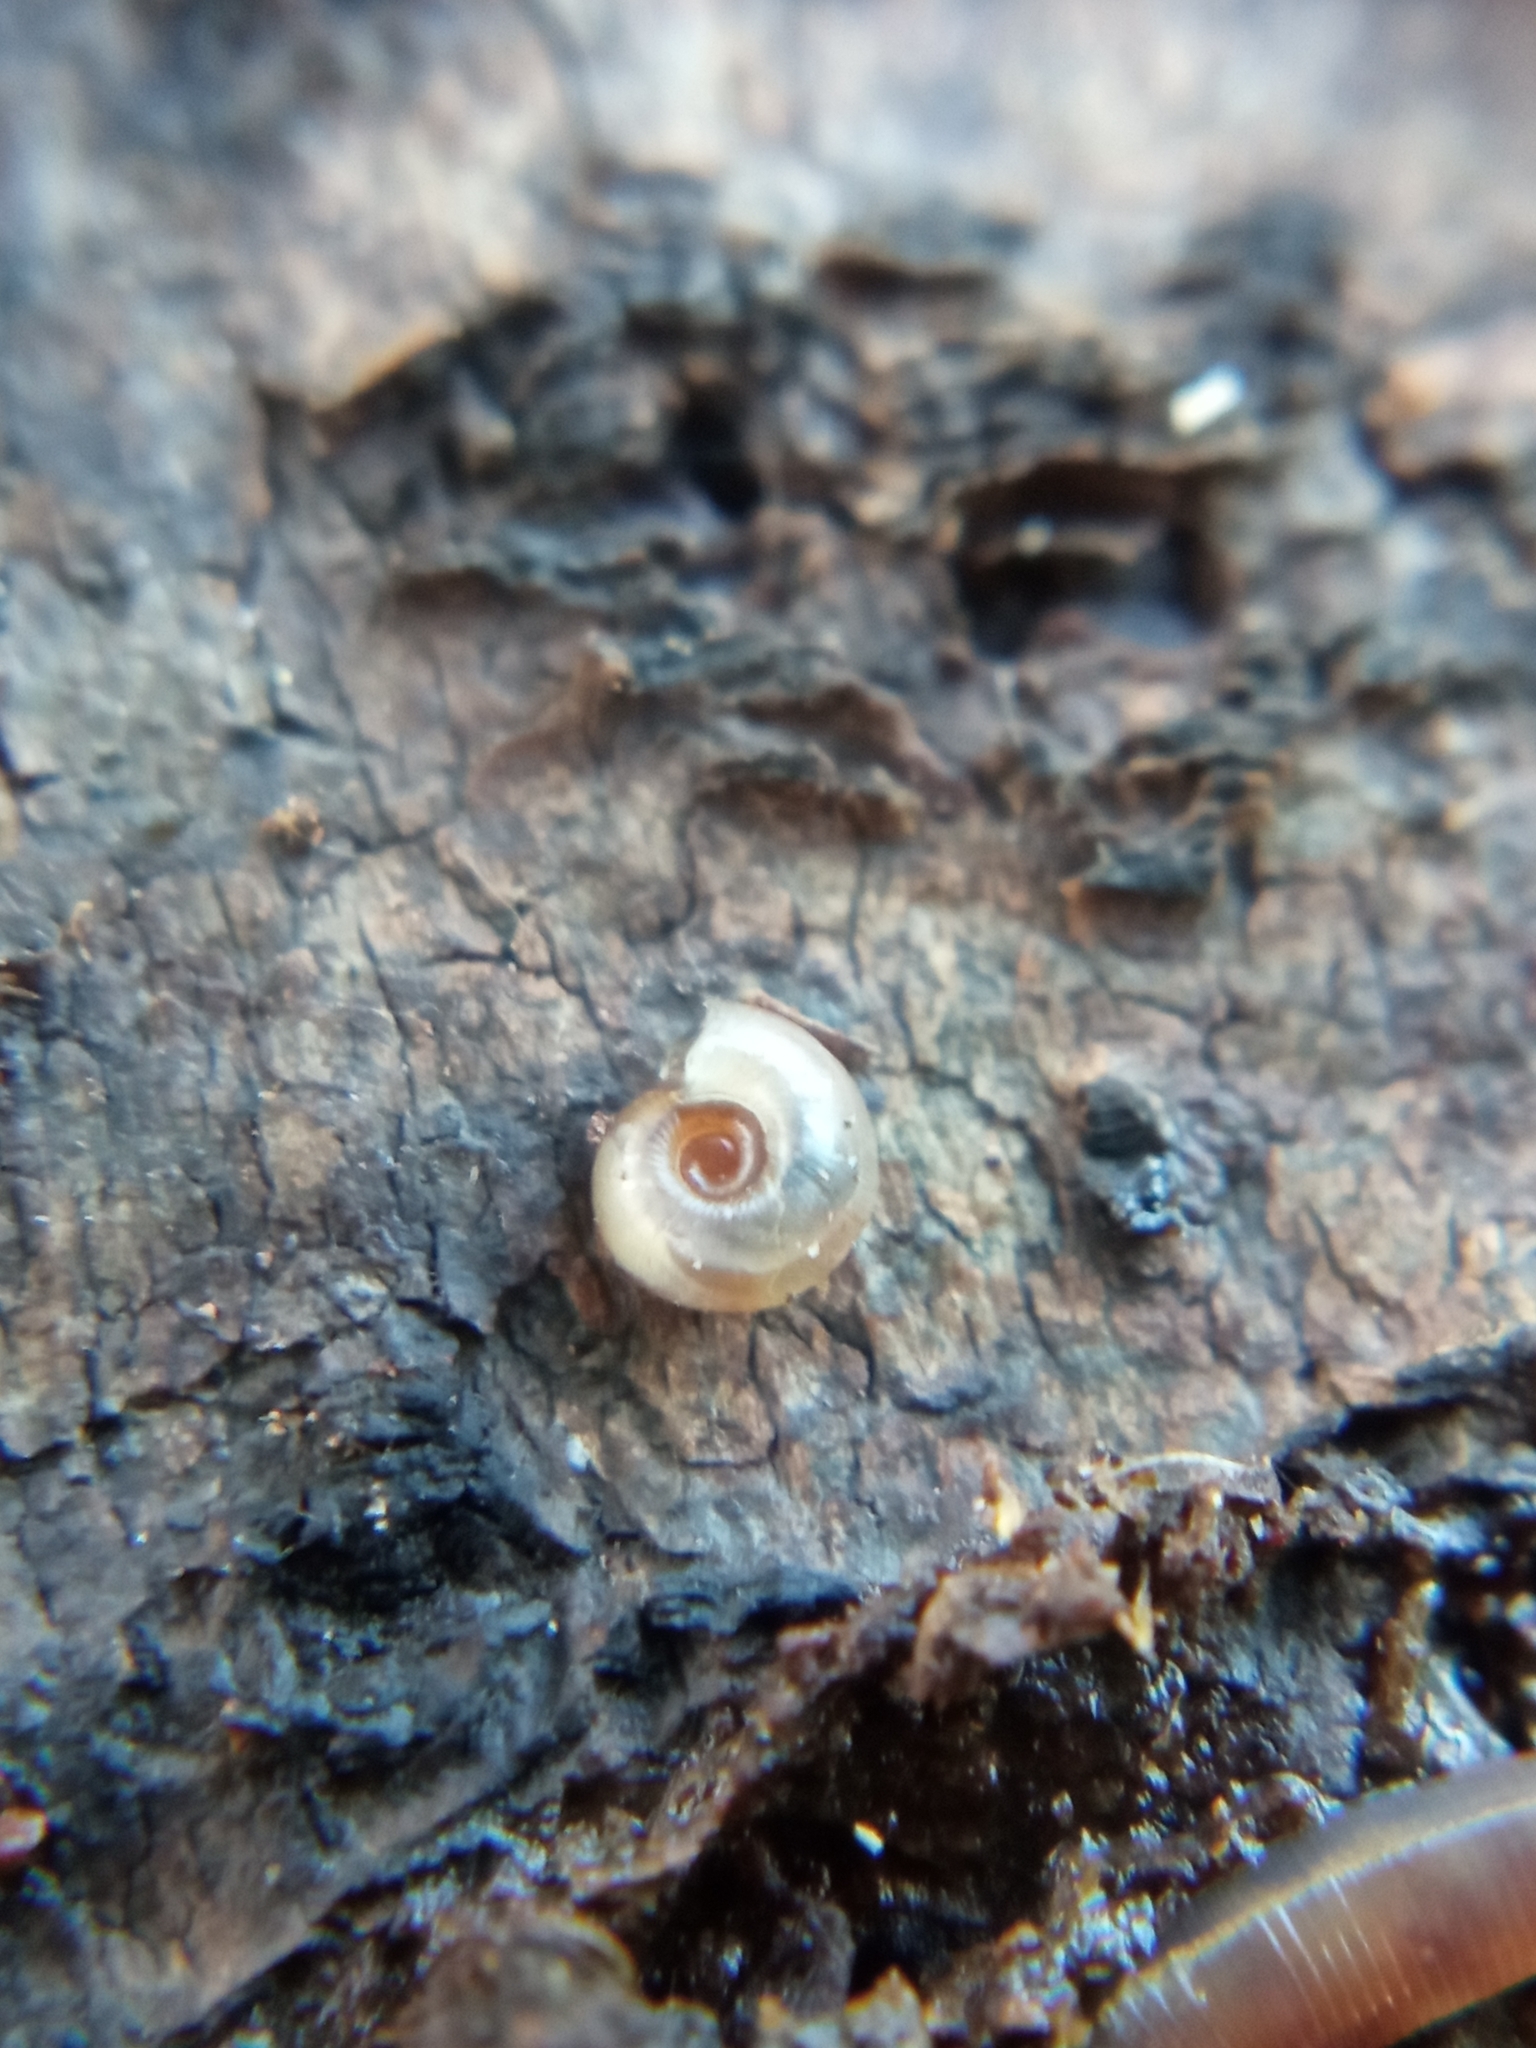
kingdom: Animalia
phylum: Mollusca
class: Gastropoda
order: Stylommatophora
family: Discidae
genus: Discus
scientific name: Discus rotundatus
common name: Rounded snail
